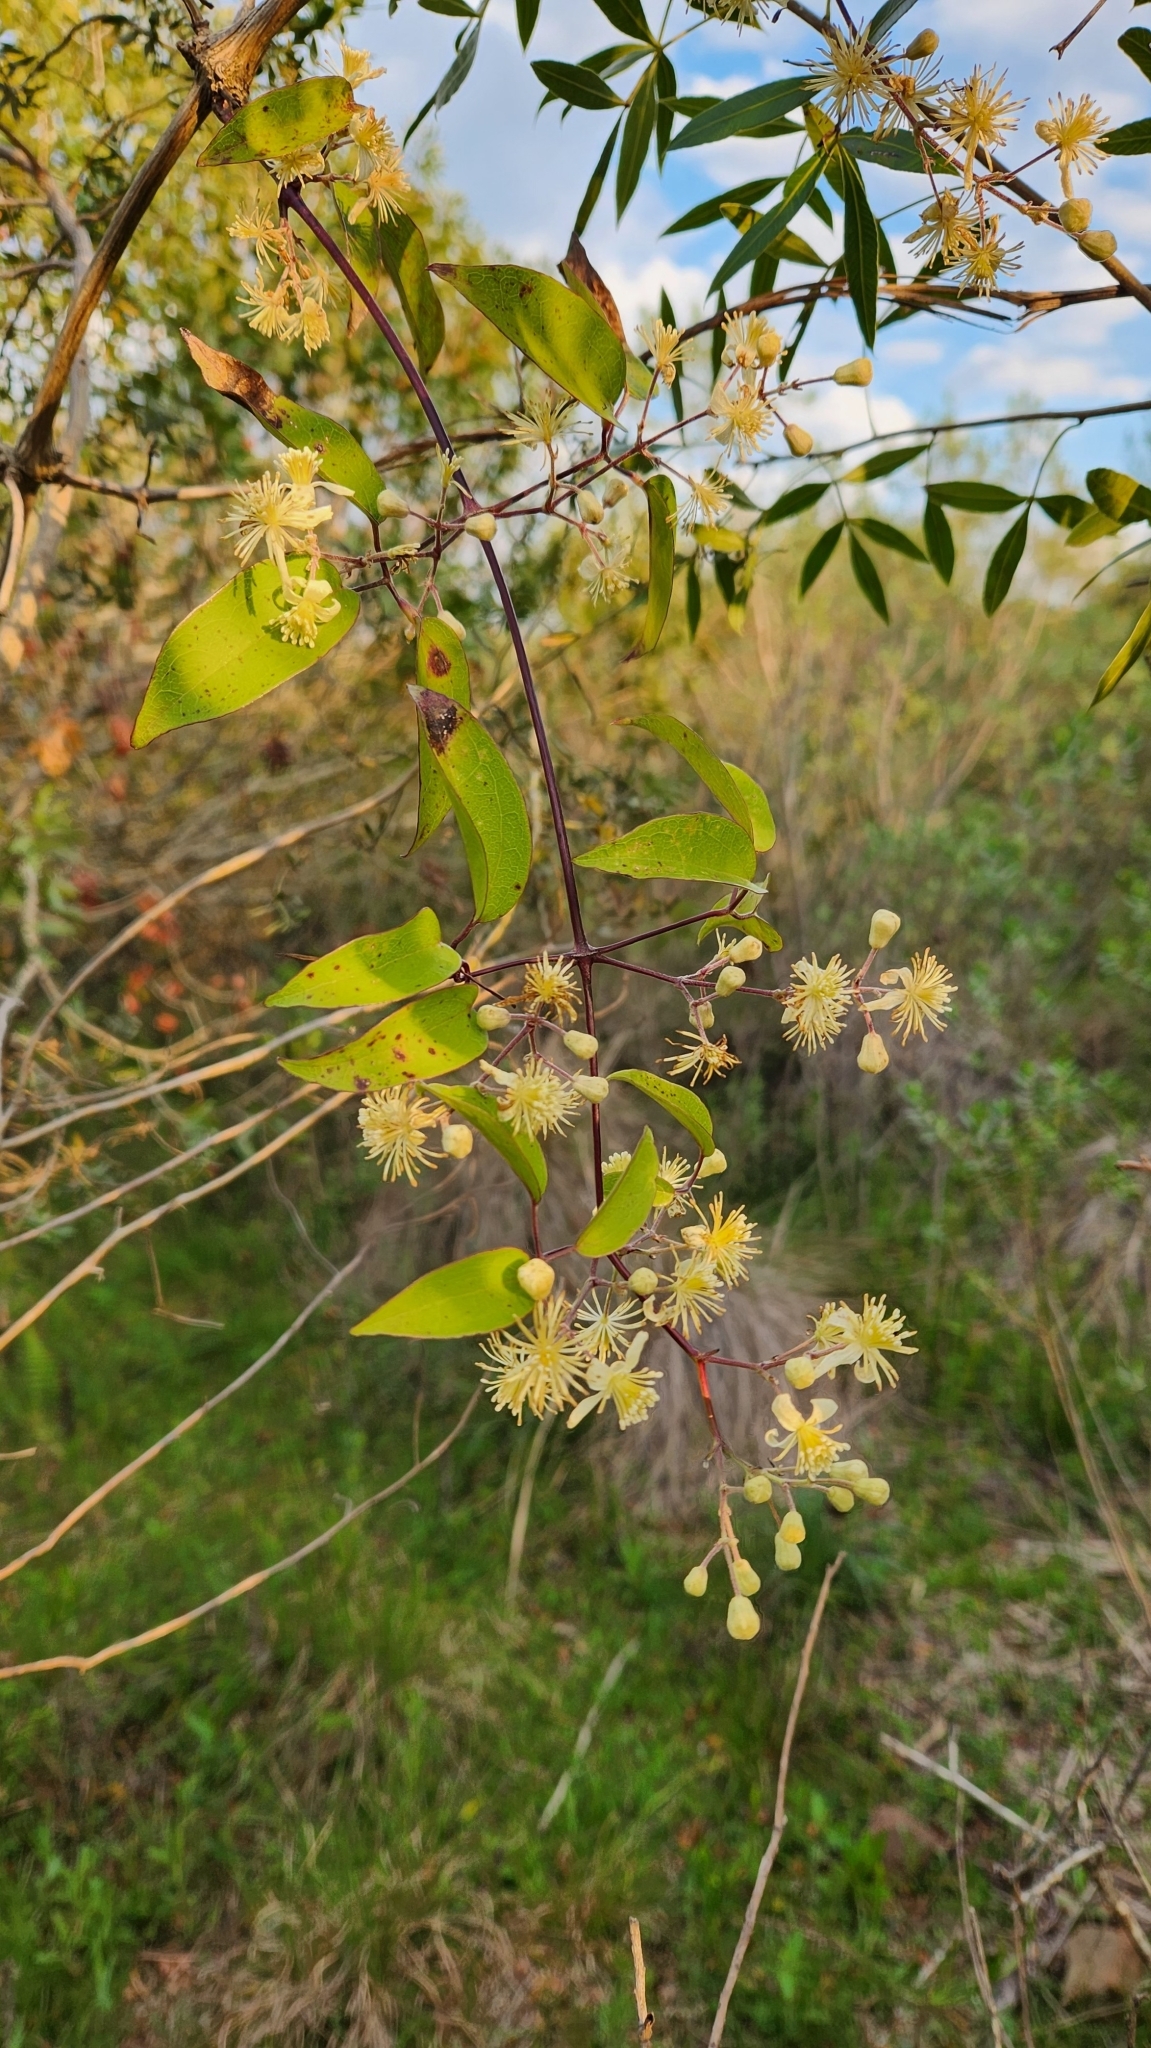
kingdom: Plantae
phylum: Tracheophyta
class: Magnoliopsida
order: Ranunculales
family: Ranunculaceae
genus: Clematis
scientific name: Clematis bonariensis
